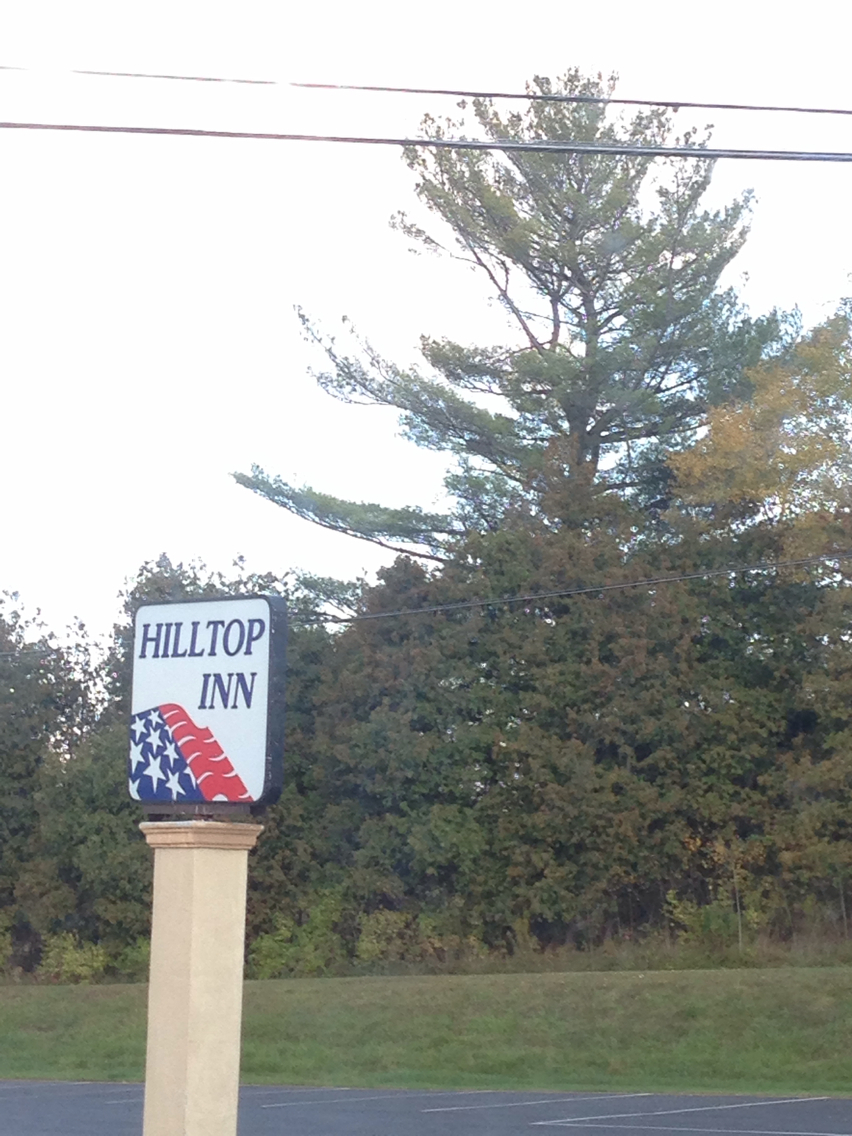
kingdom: Plantae
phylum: Tracheophyta
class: Pinopsida
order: Pinales
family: Pinaceae
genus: Pinus
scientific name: Pinus strobus
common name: Weymouth pine
